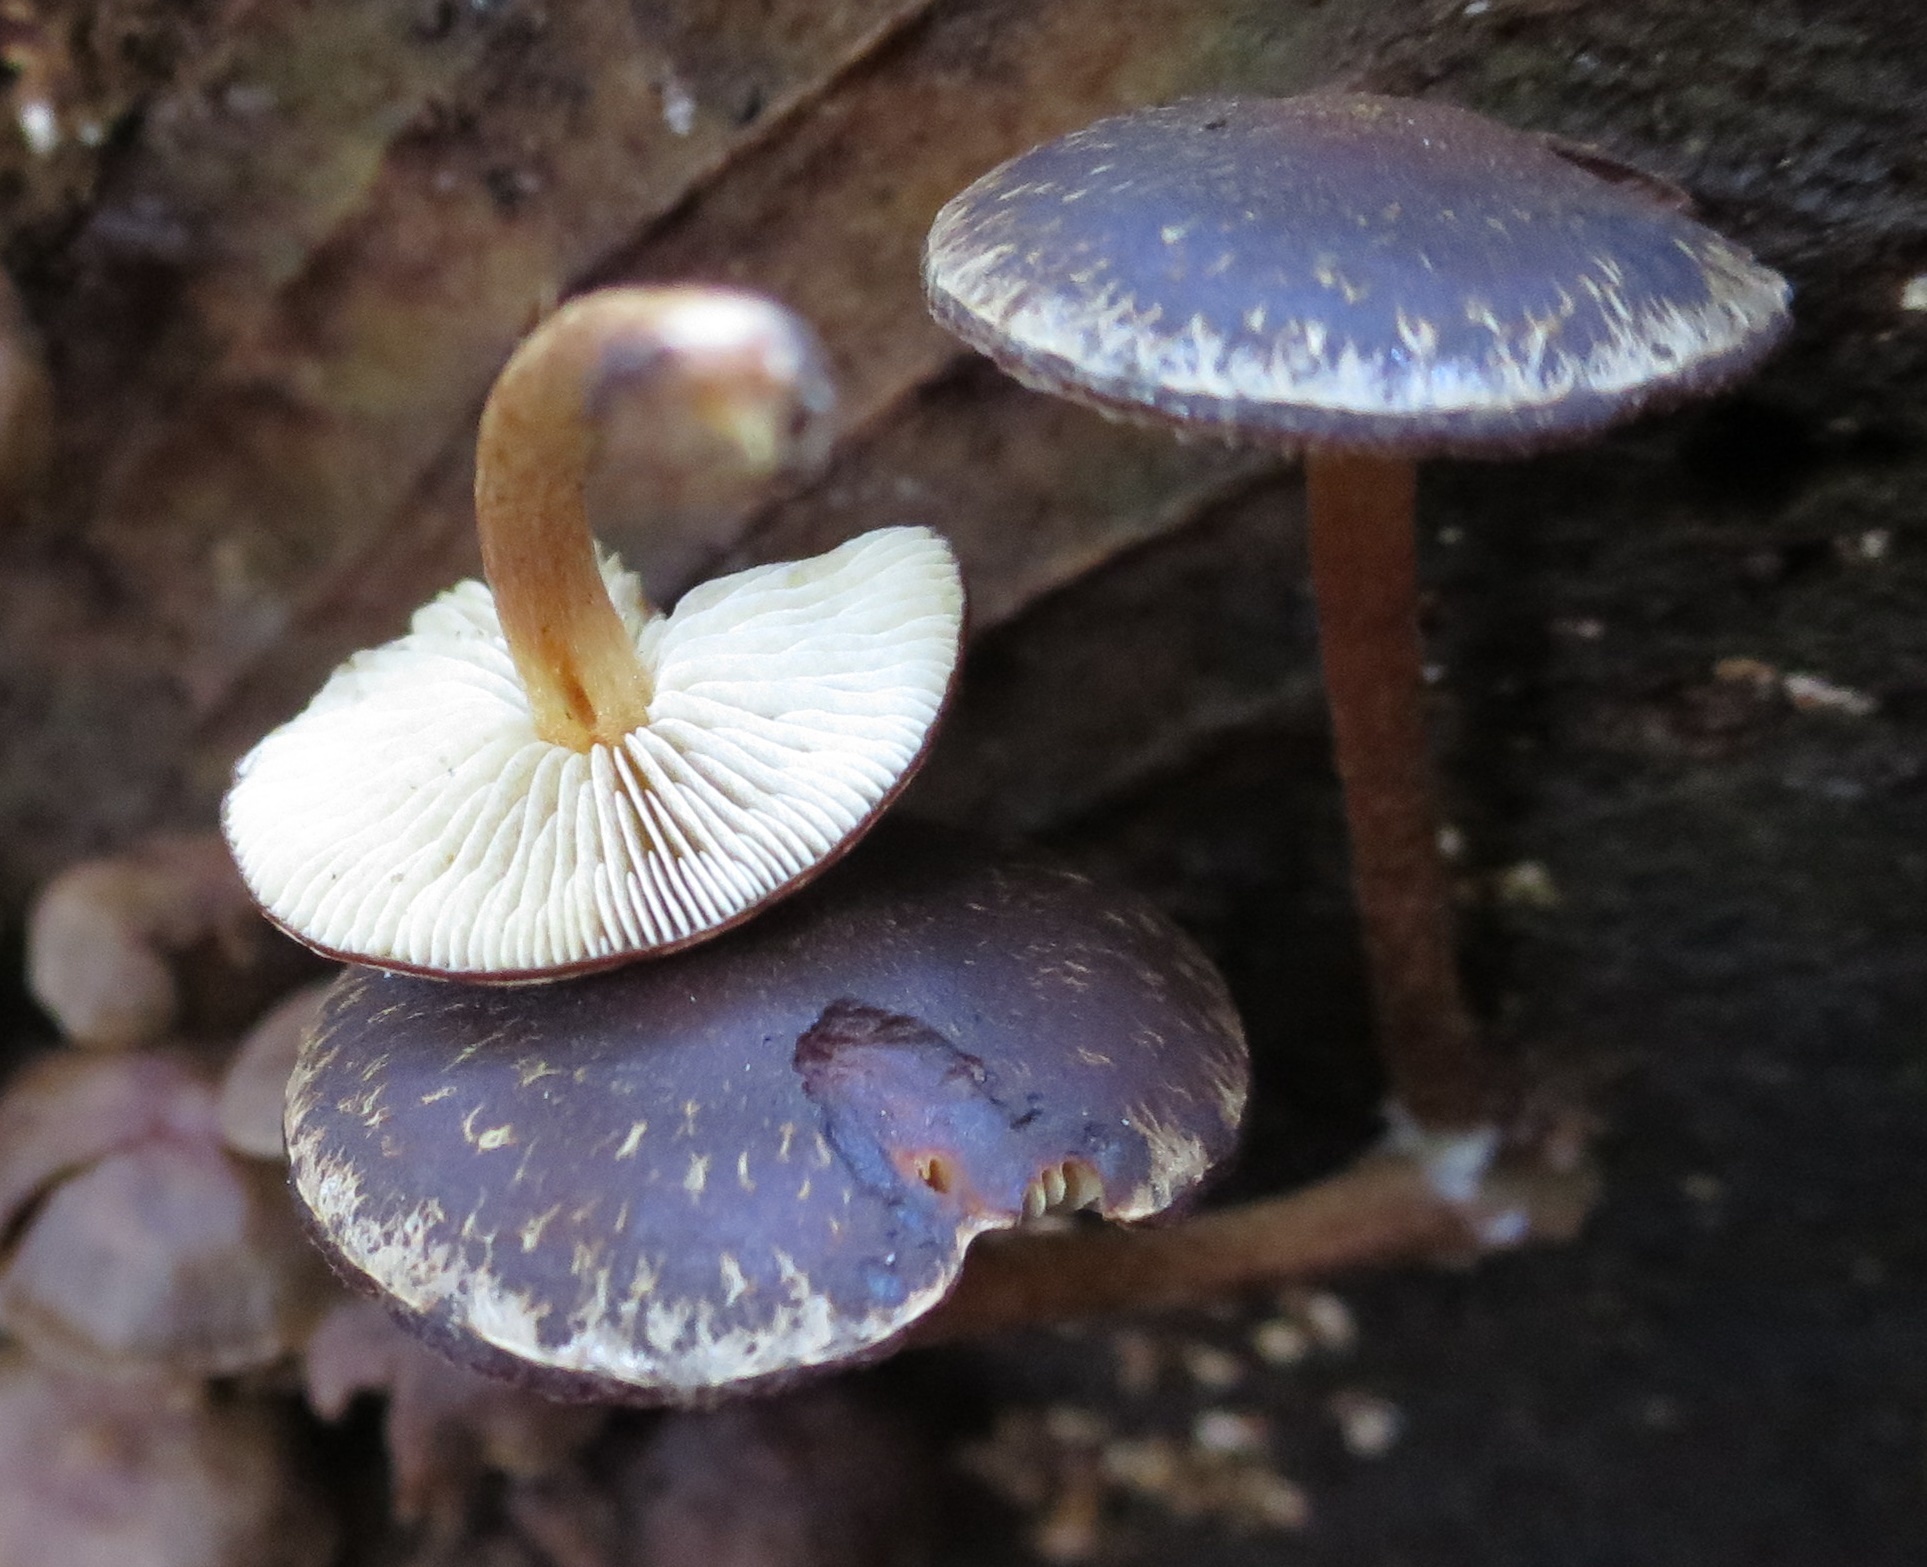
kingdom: Fungi
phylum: Basidiomycota
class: Agaricomycetes
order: Agaricales
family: Strophariaceae
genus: Hypholoma
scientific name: Hypholoma brunneum
